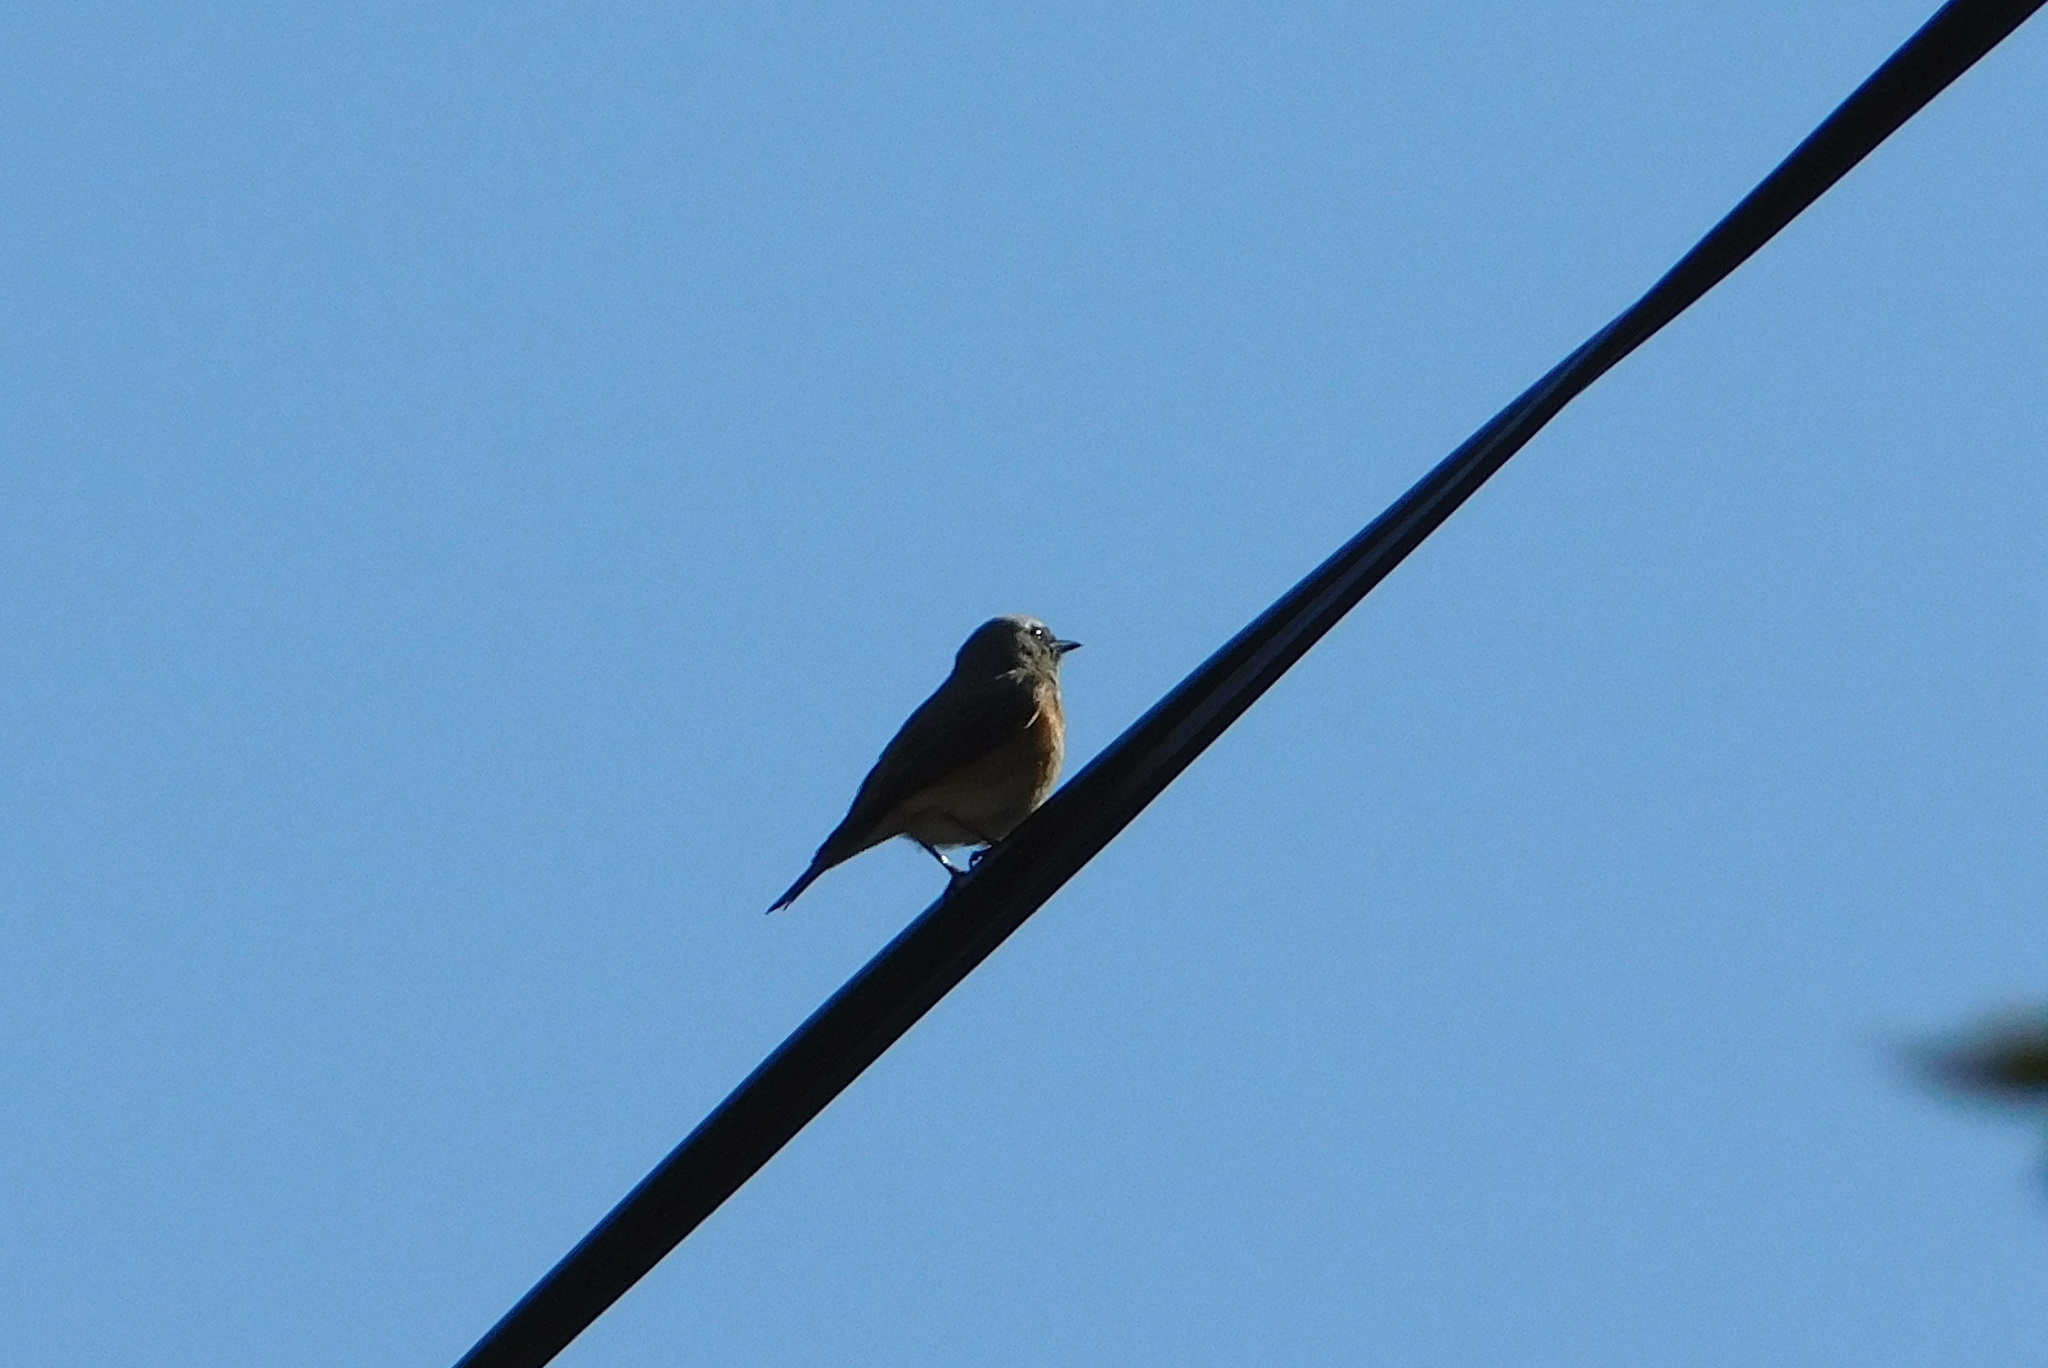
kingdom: Animalia
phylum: Chordata
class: Aves
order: Passeriformes
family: Muscicapidae
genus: Phoenicurus
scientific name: Phoenicurus phoenicurus
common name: Common redstart
